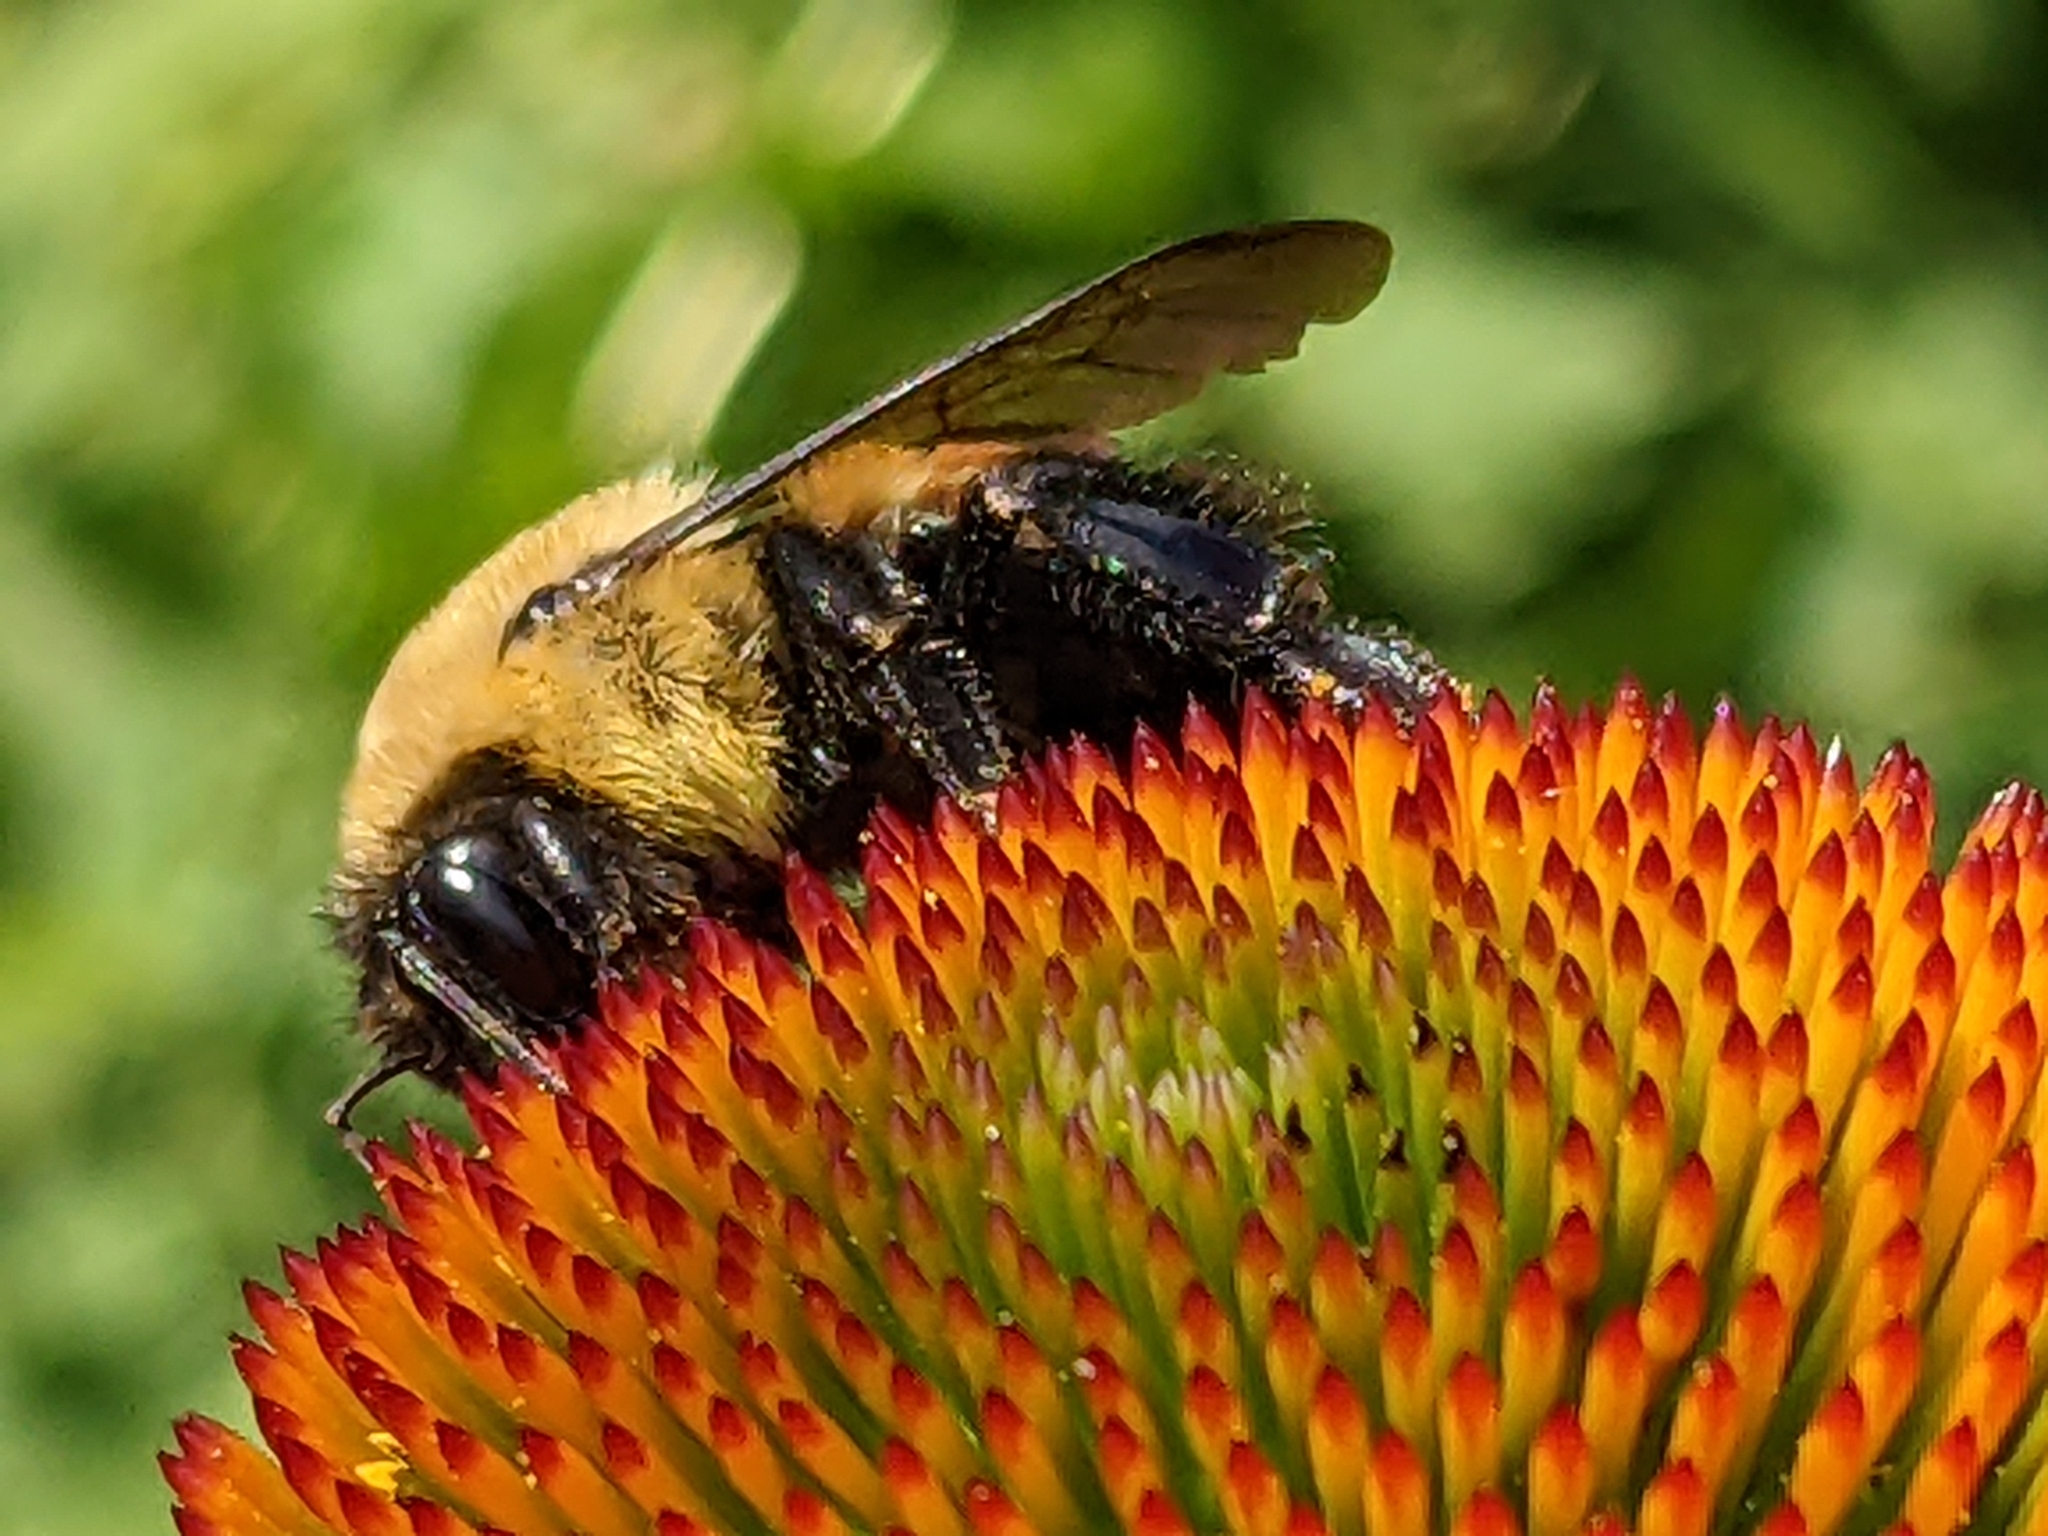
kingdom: Animalia
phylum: Arthropoda
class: Insecta
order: Hymenoptera
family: Apidae
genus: Bombus
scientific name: Bombus griseocollis
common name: Brown-belted bumble bee
